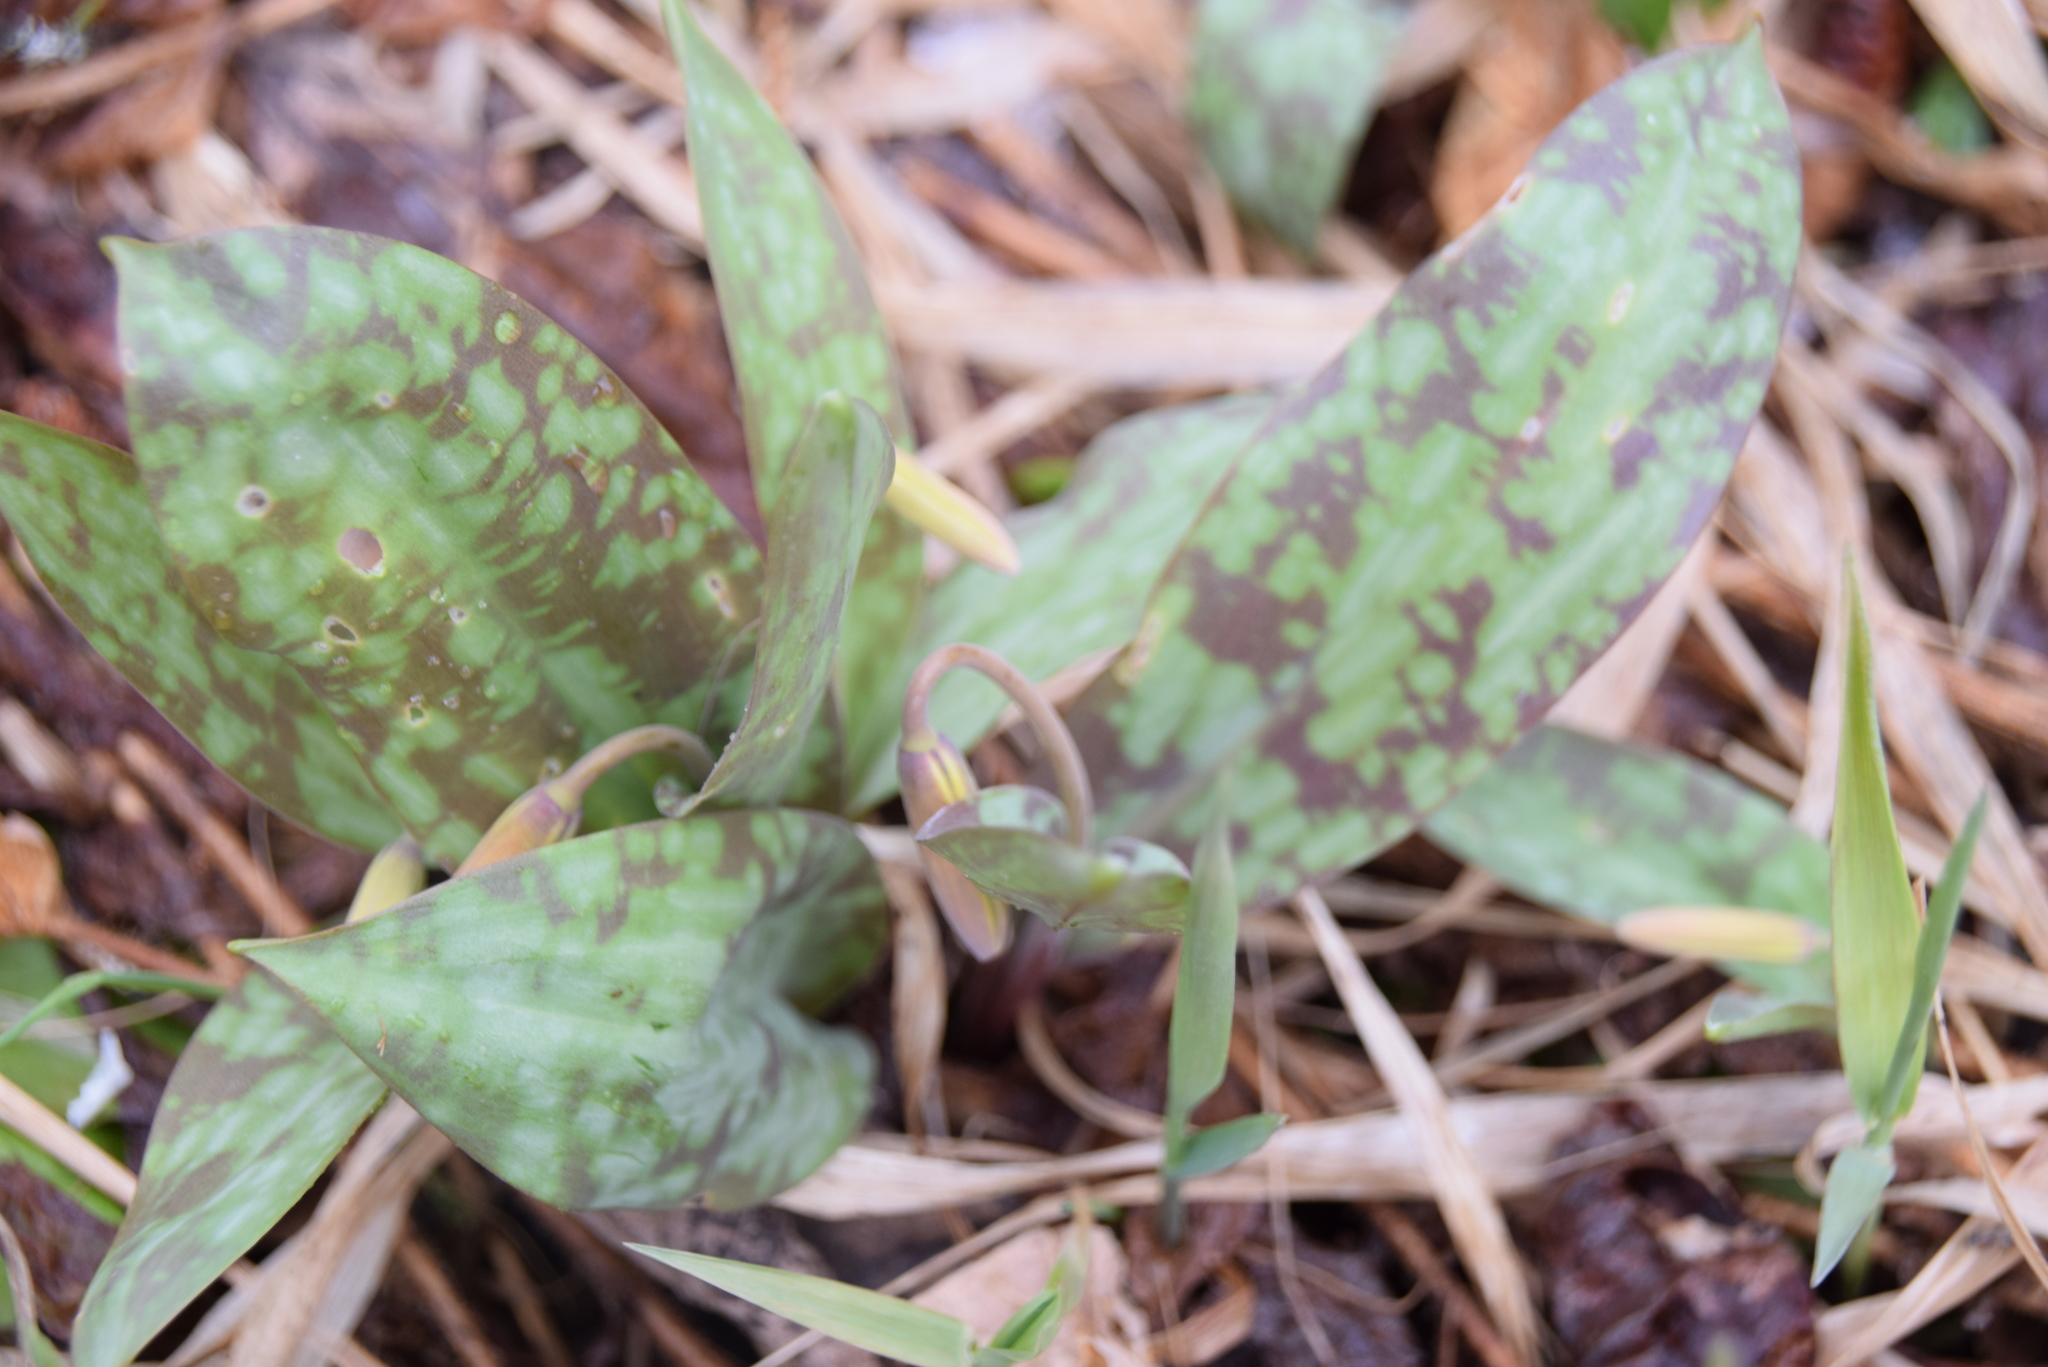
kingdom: Plantae
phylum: Tracheophyta
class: Liliopsida
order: Liliales
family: Liliaceae
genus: Erythronium
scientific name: Erythronium americanum
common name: Yellow adder's-tongue
